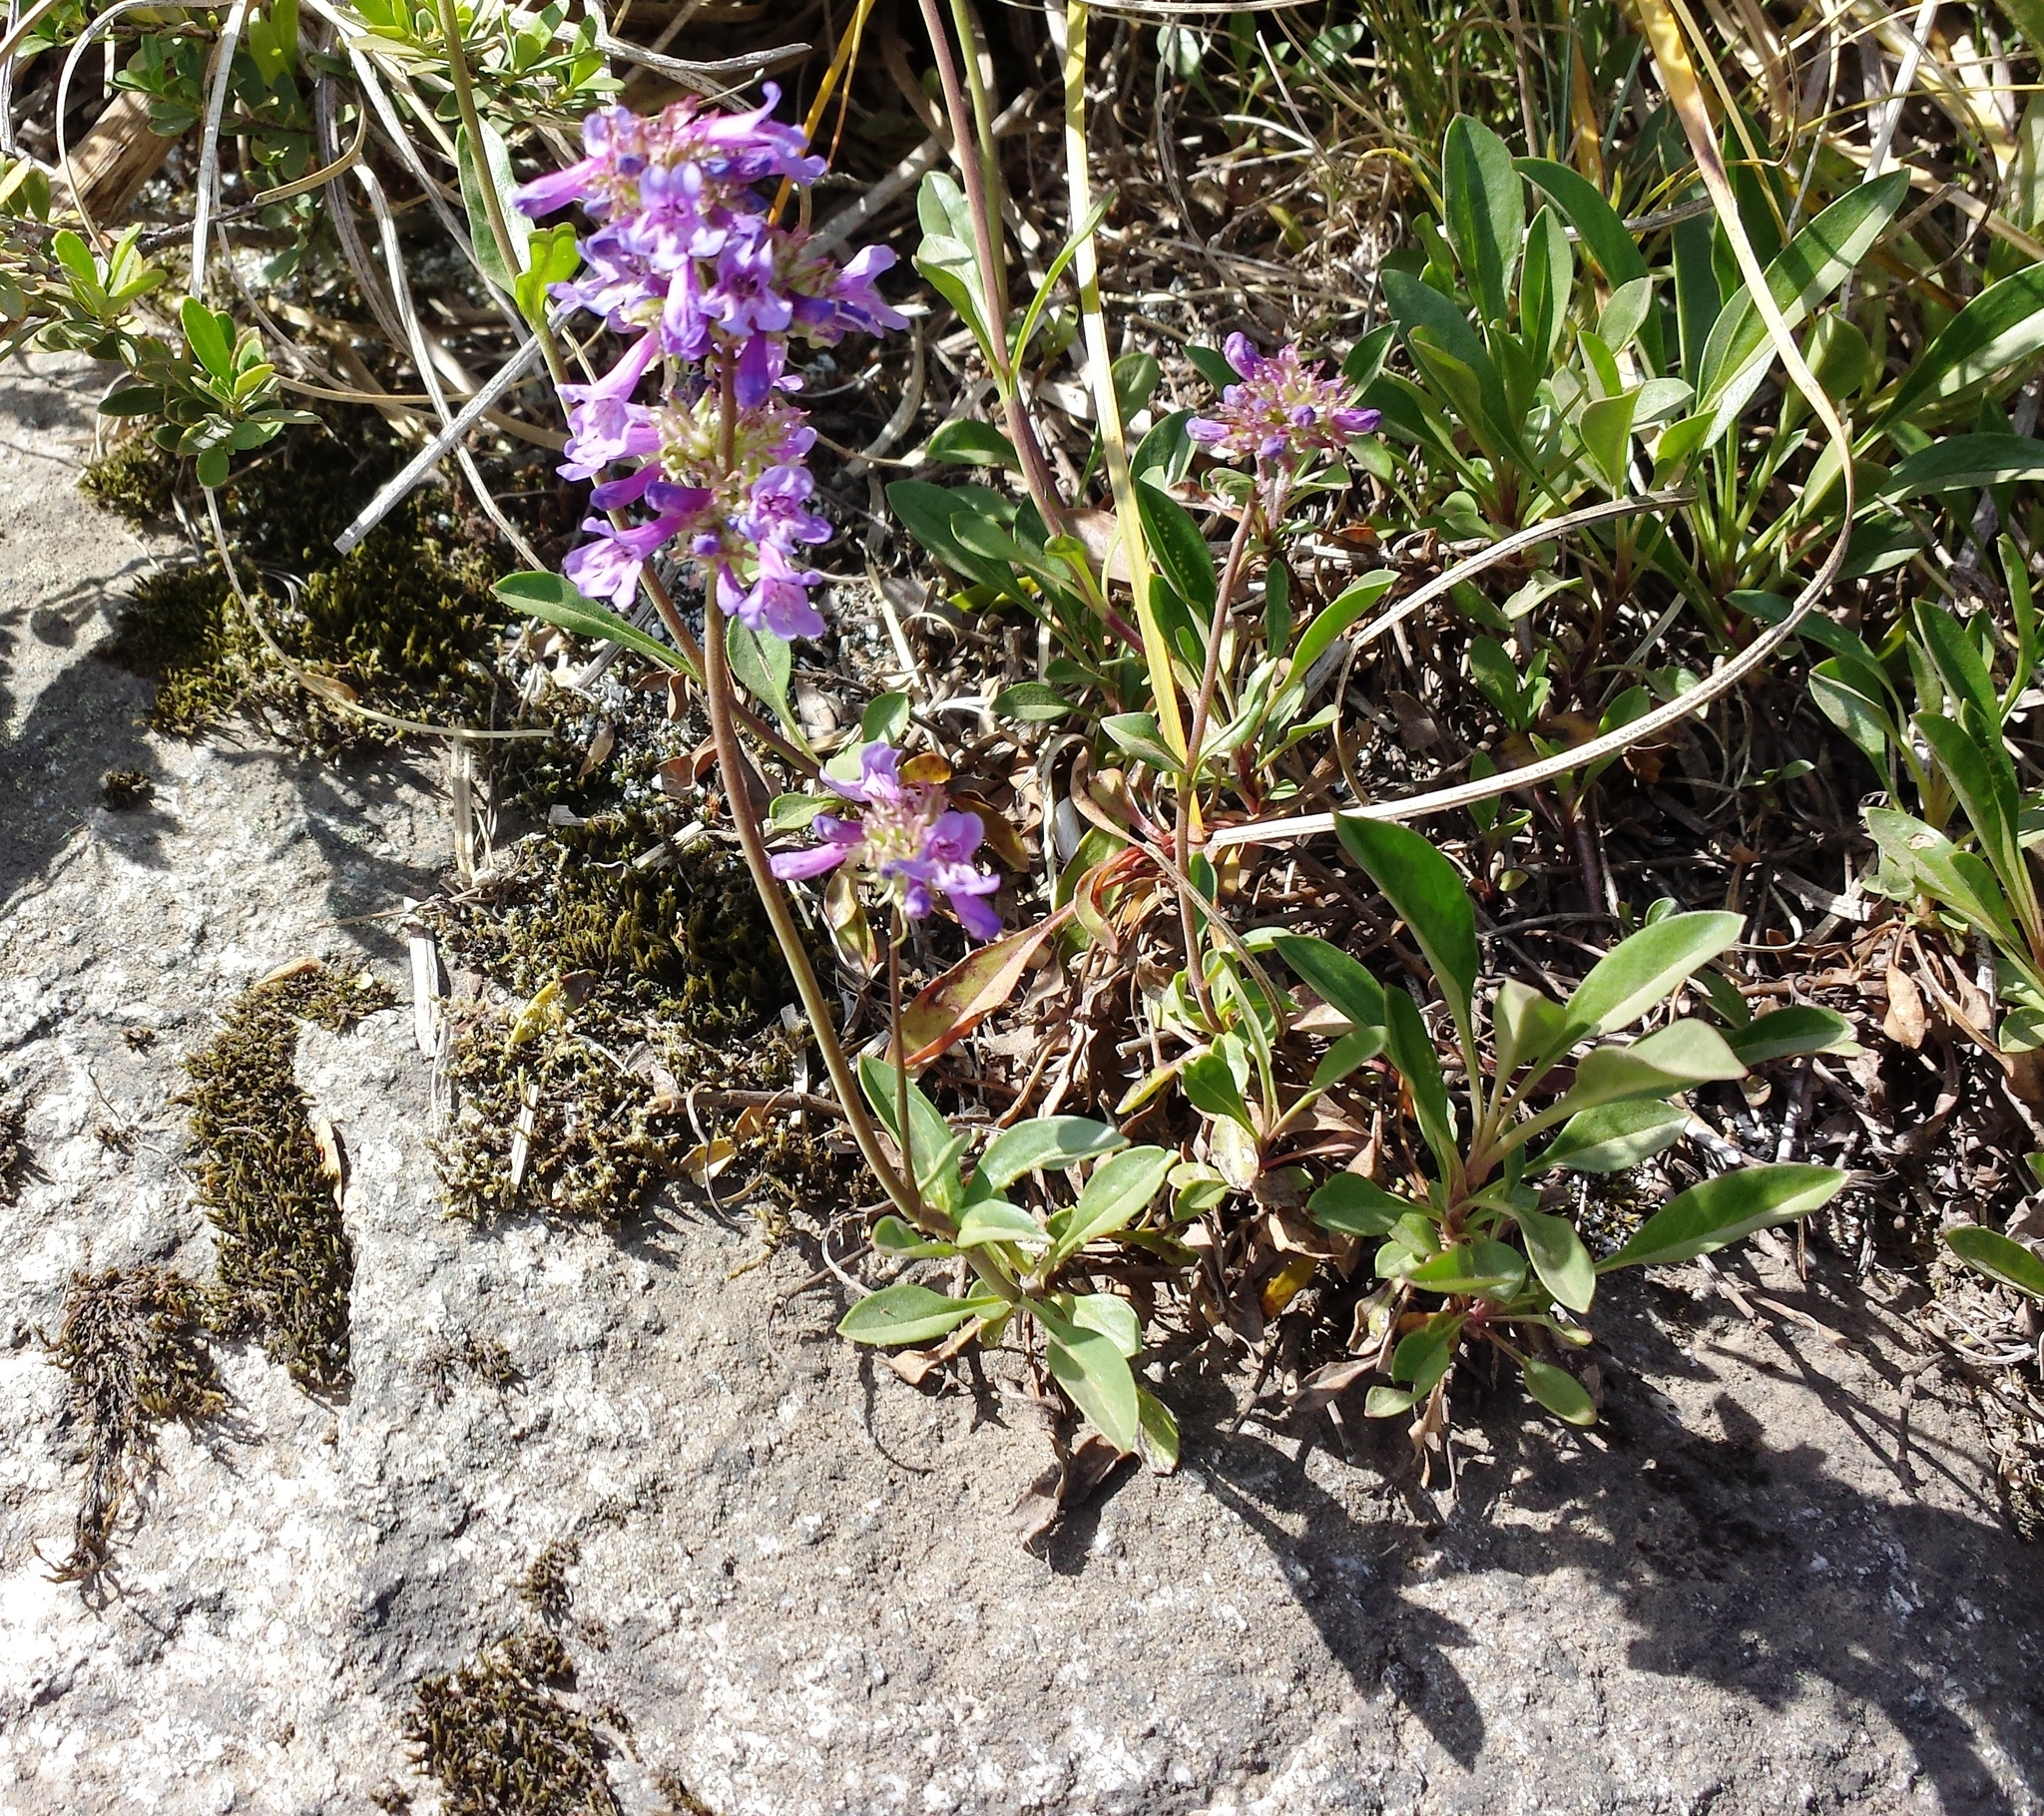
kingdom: Plantae
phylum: Tracheophyta
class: Magnoliopsida
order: Lamiales
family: Plantaginaceae
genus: Penstemon
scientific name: Penstemon procerus
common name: Small-flower penstemon
